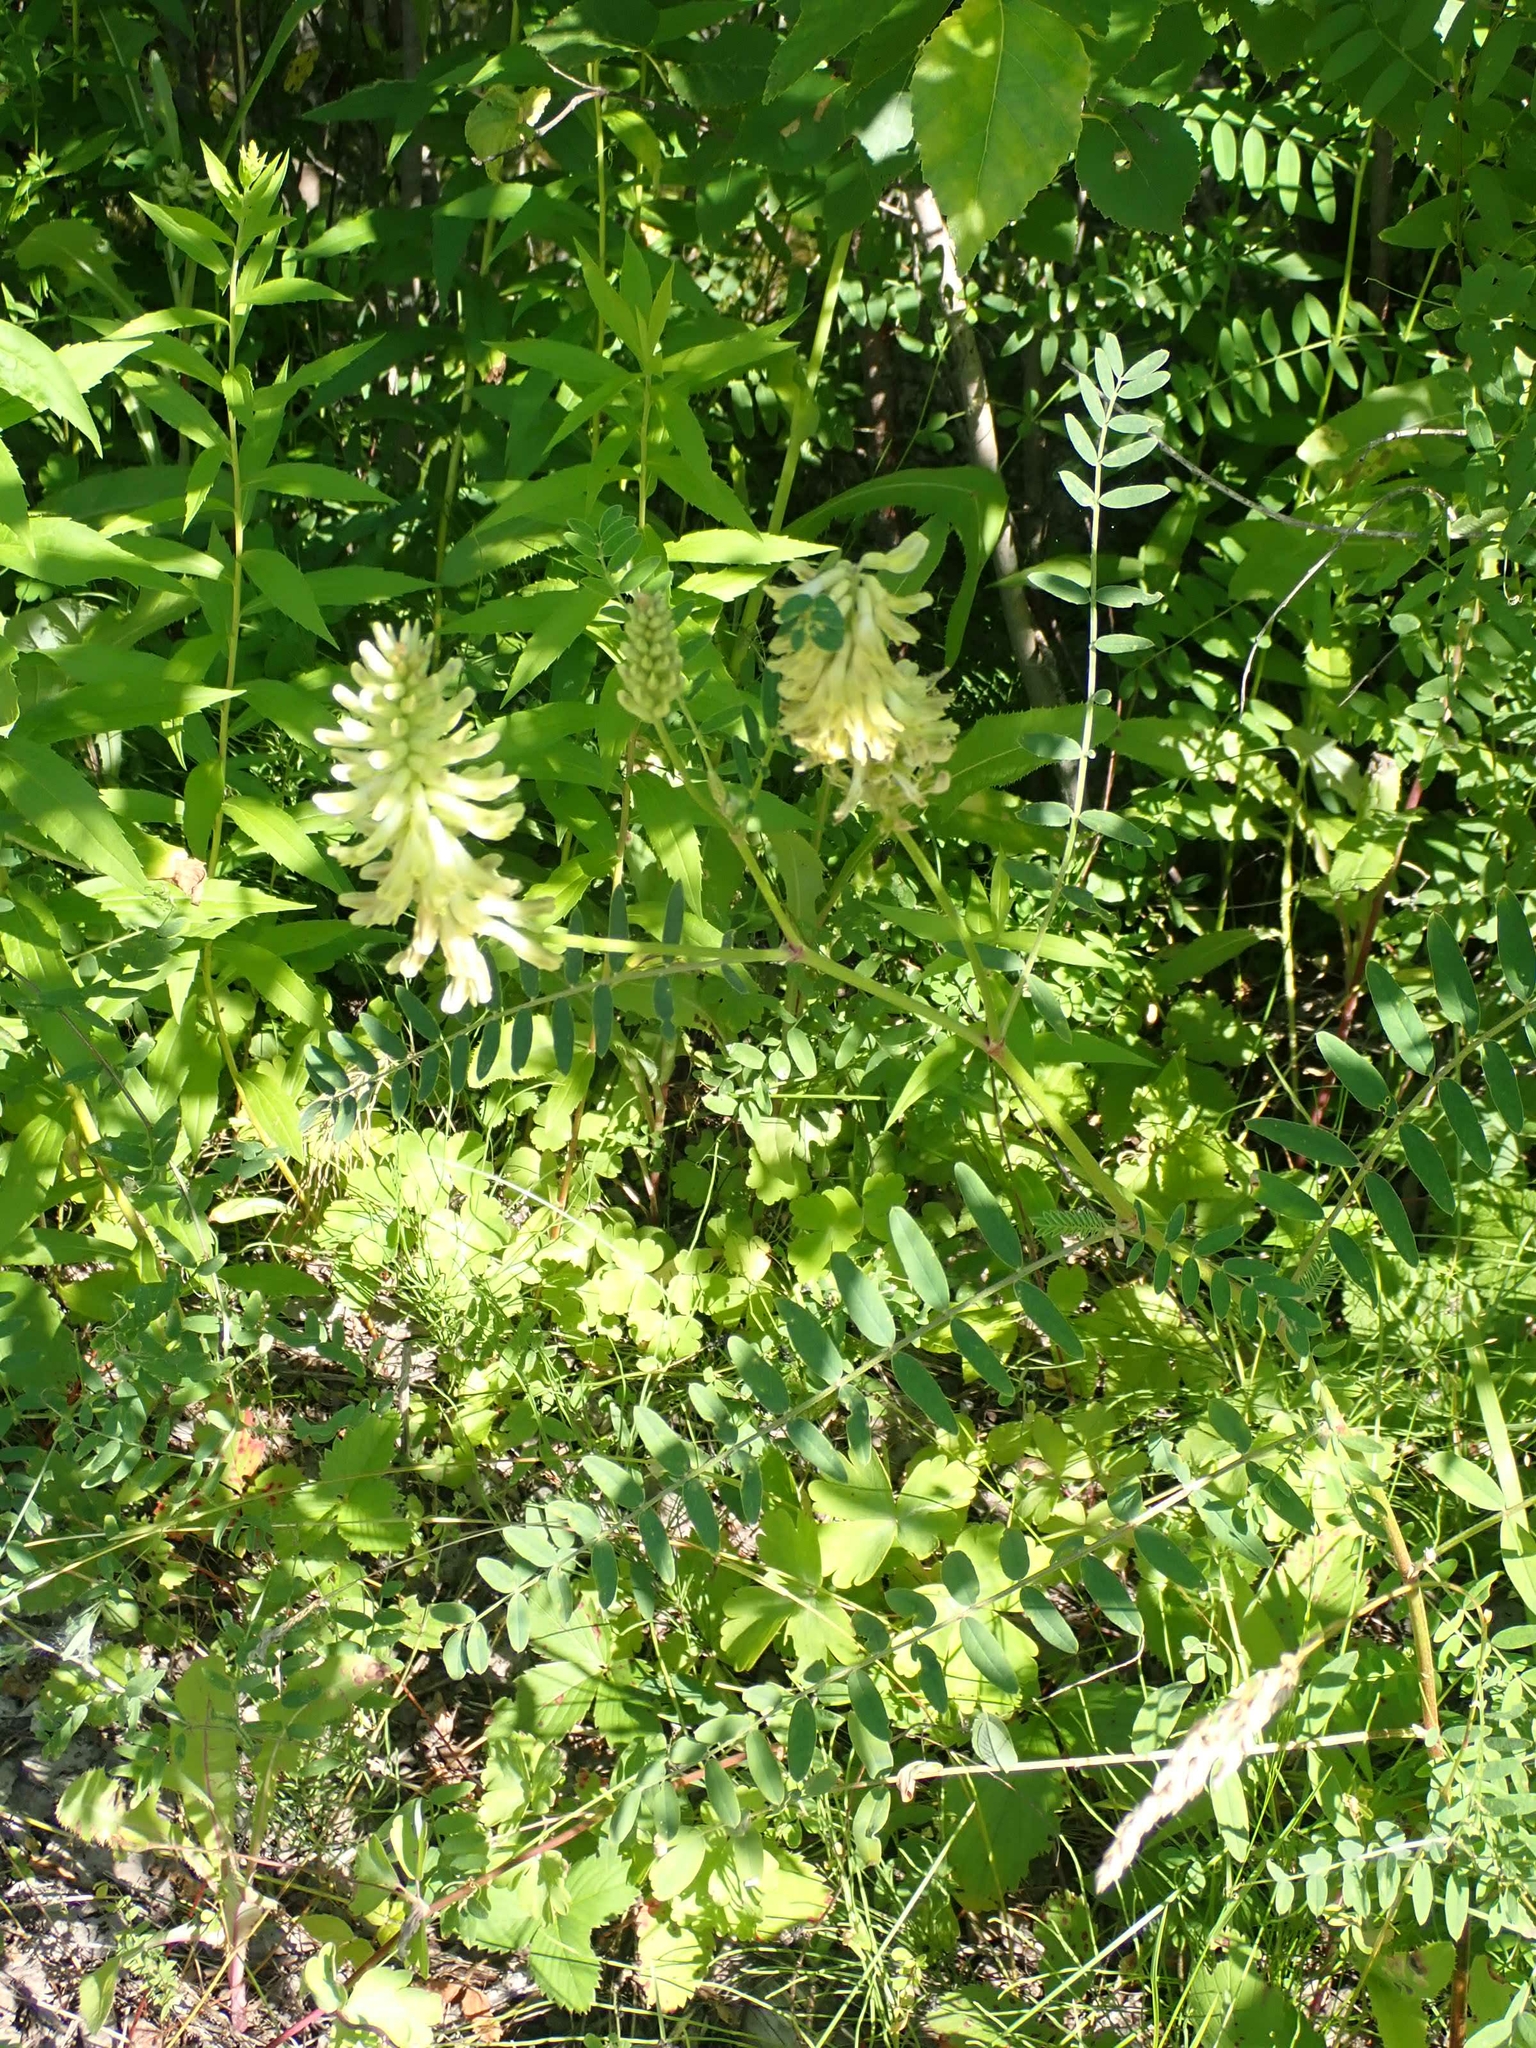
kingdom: Plantae
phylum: Tracheophyta
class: Magnoliopsida
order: Fabales
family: Fabaceae
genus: Astragalus
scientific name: Astragalus canadensis
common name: Canada milk-vetch
